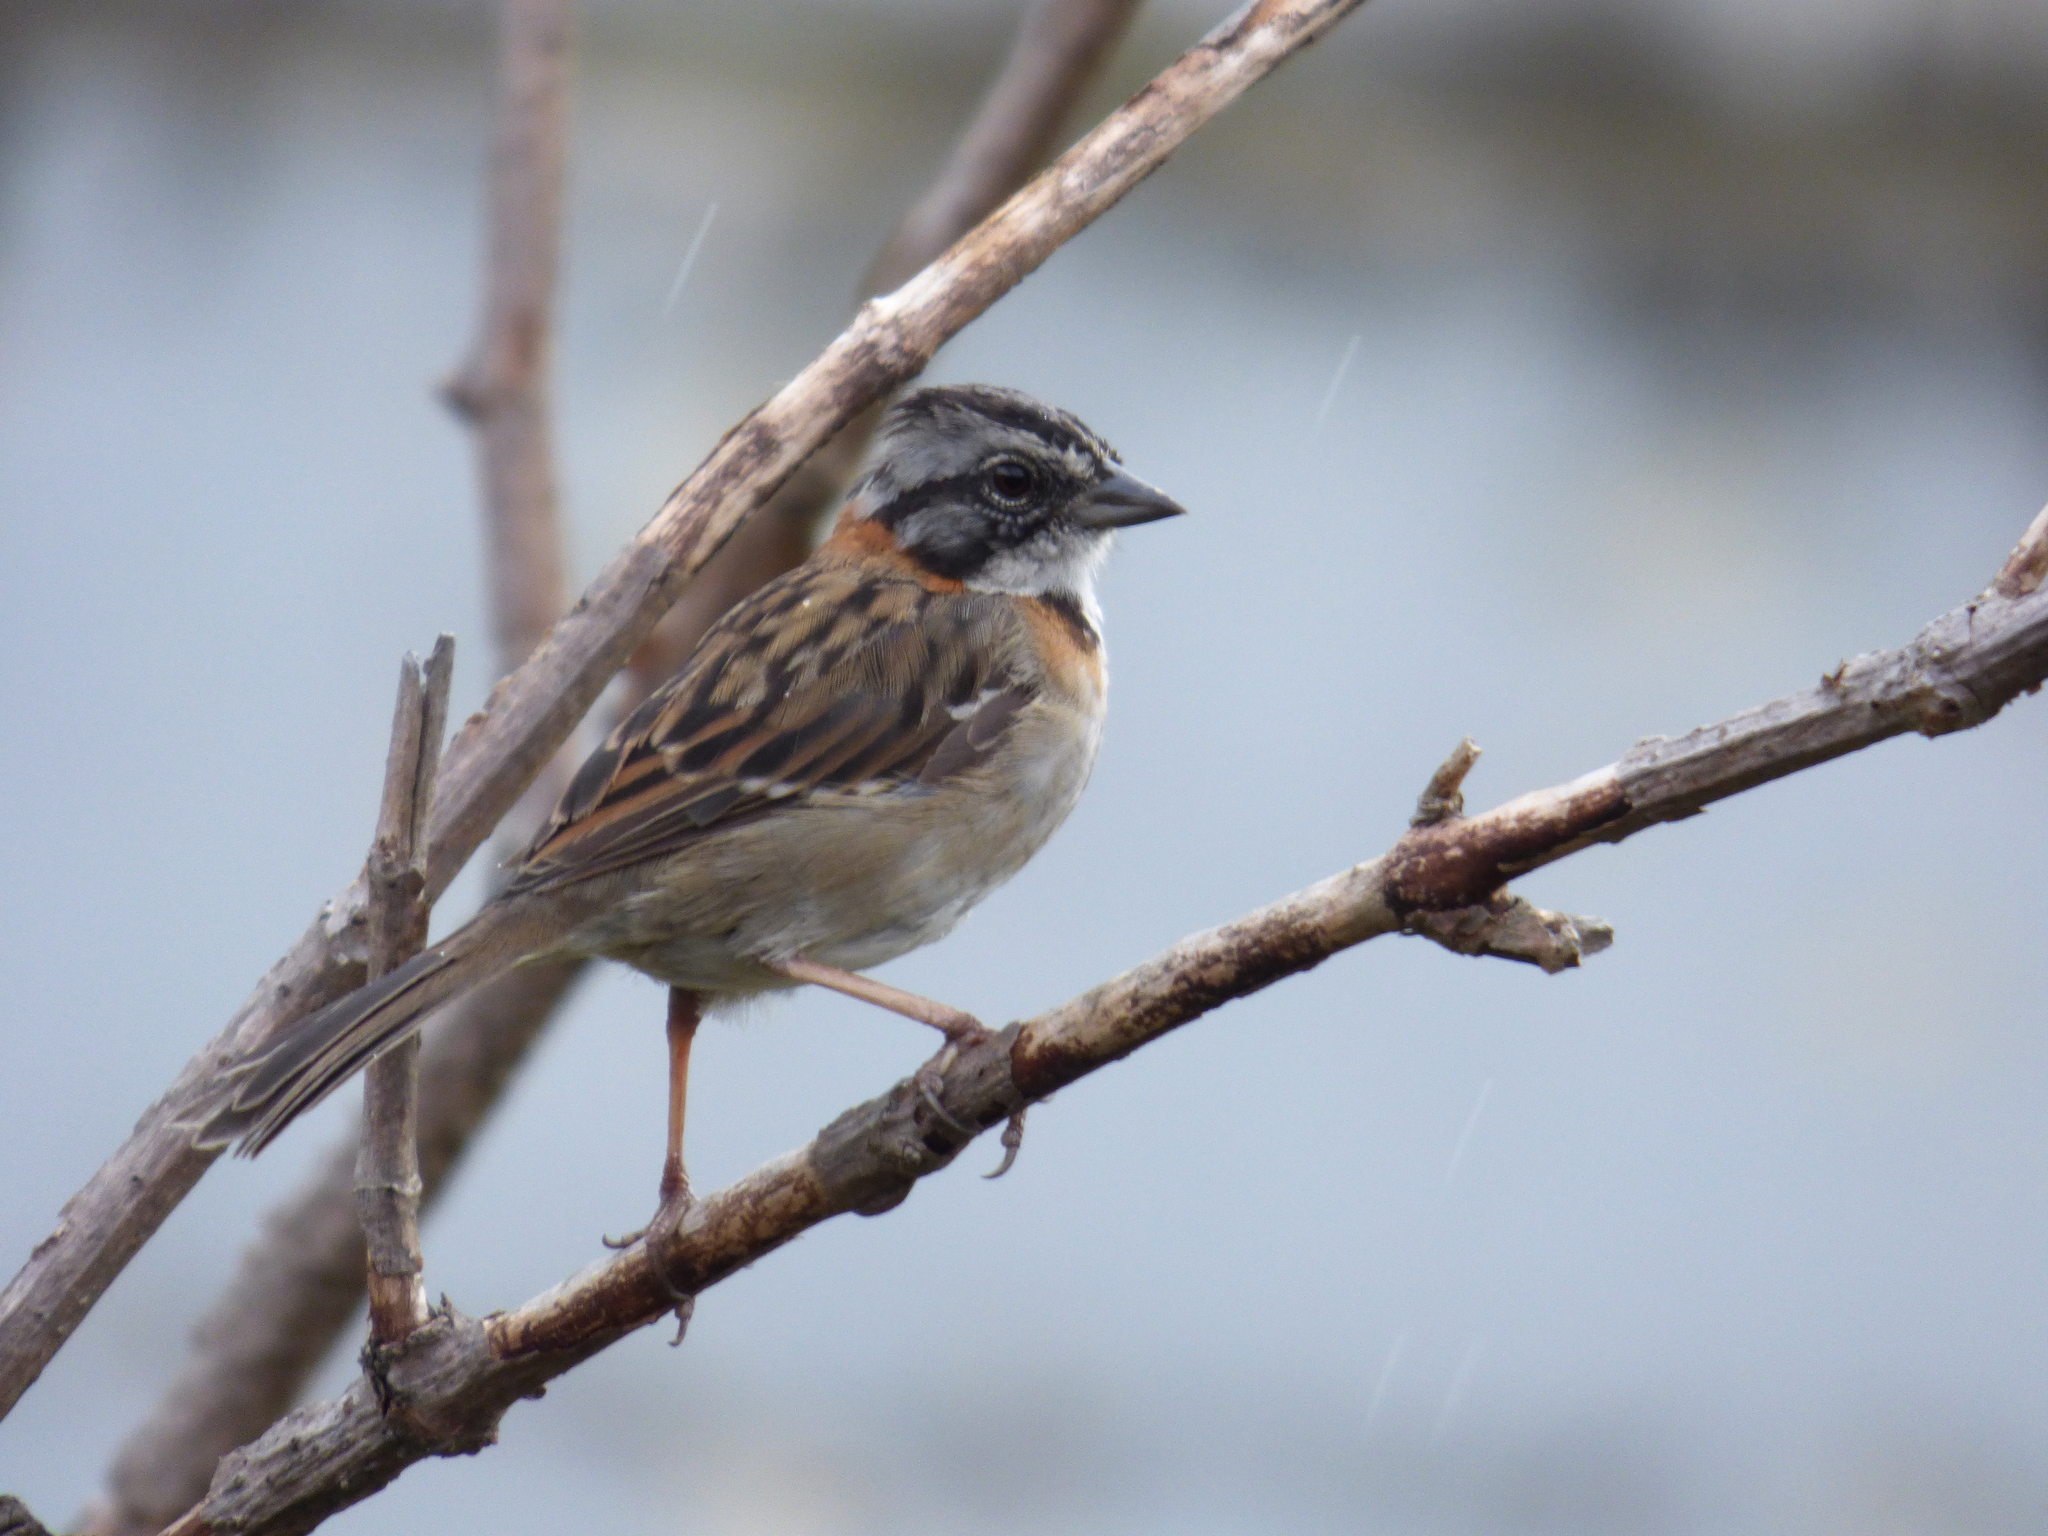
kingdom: Animalia
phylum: Chordata
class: Aves
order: Passeriformes
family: Passerellidae
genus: Zonotrichia
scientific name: Zonotrichia capensis
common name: Rufous-collared sparrow
